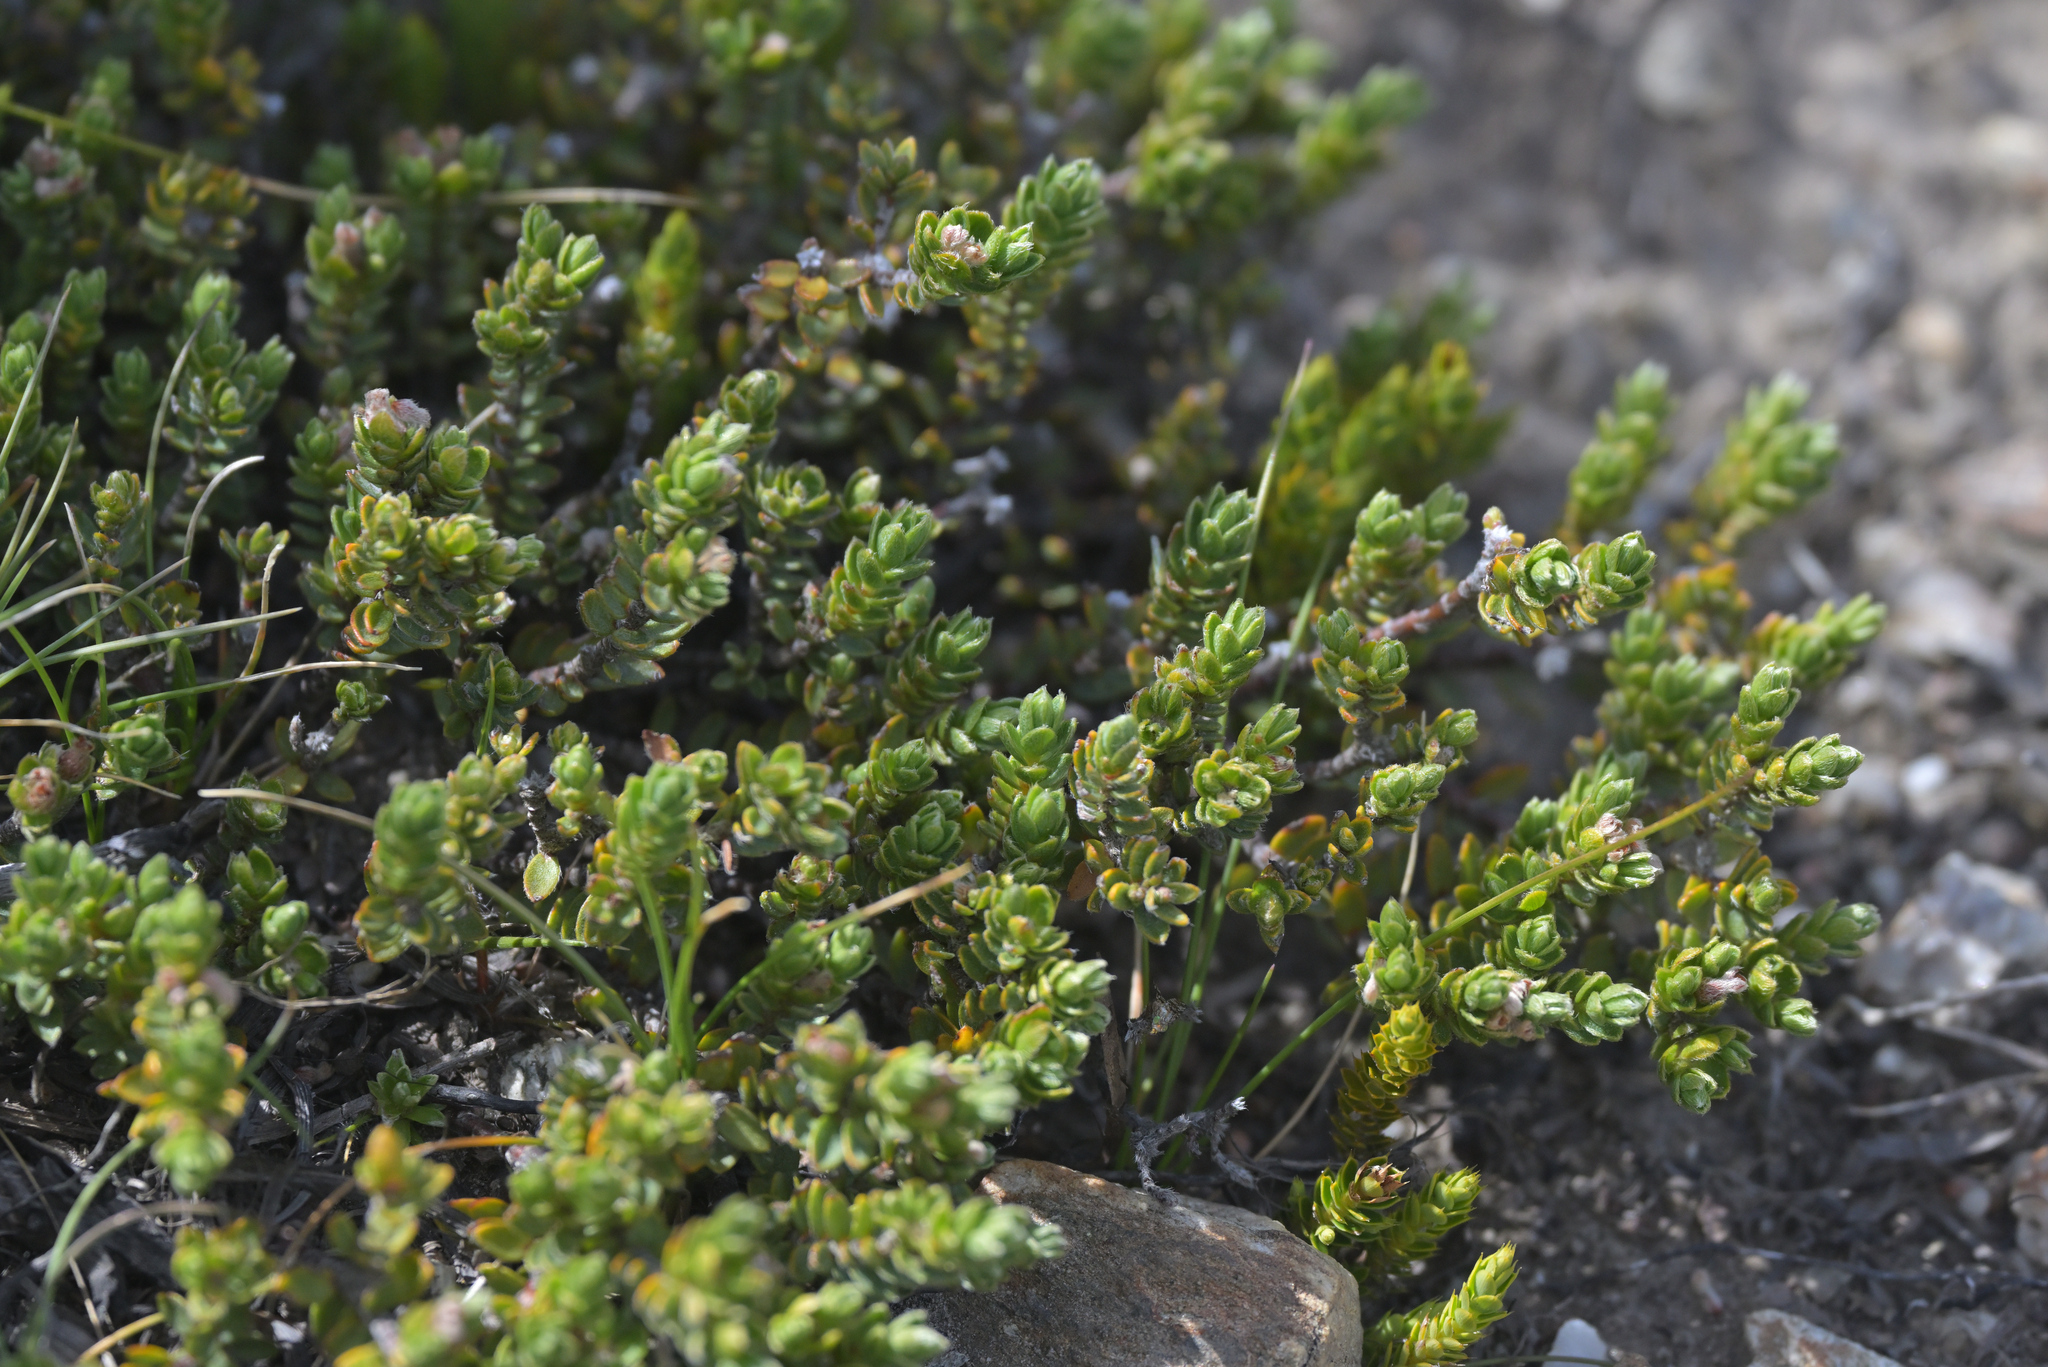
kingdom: Plantae
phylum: Tracheophyta
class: Magnoliopsida
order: Malvales
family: Thymelaeaceae
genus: Pimelea
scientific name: Pimelea oreophila
